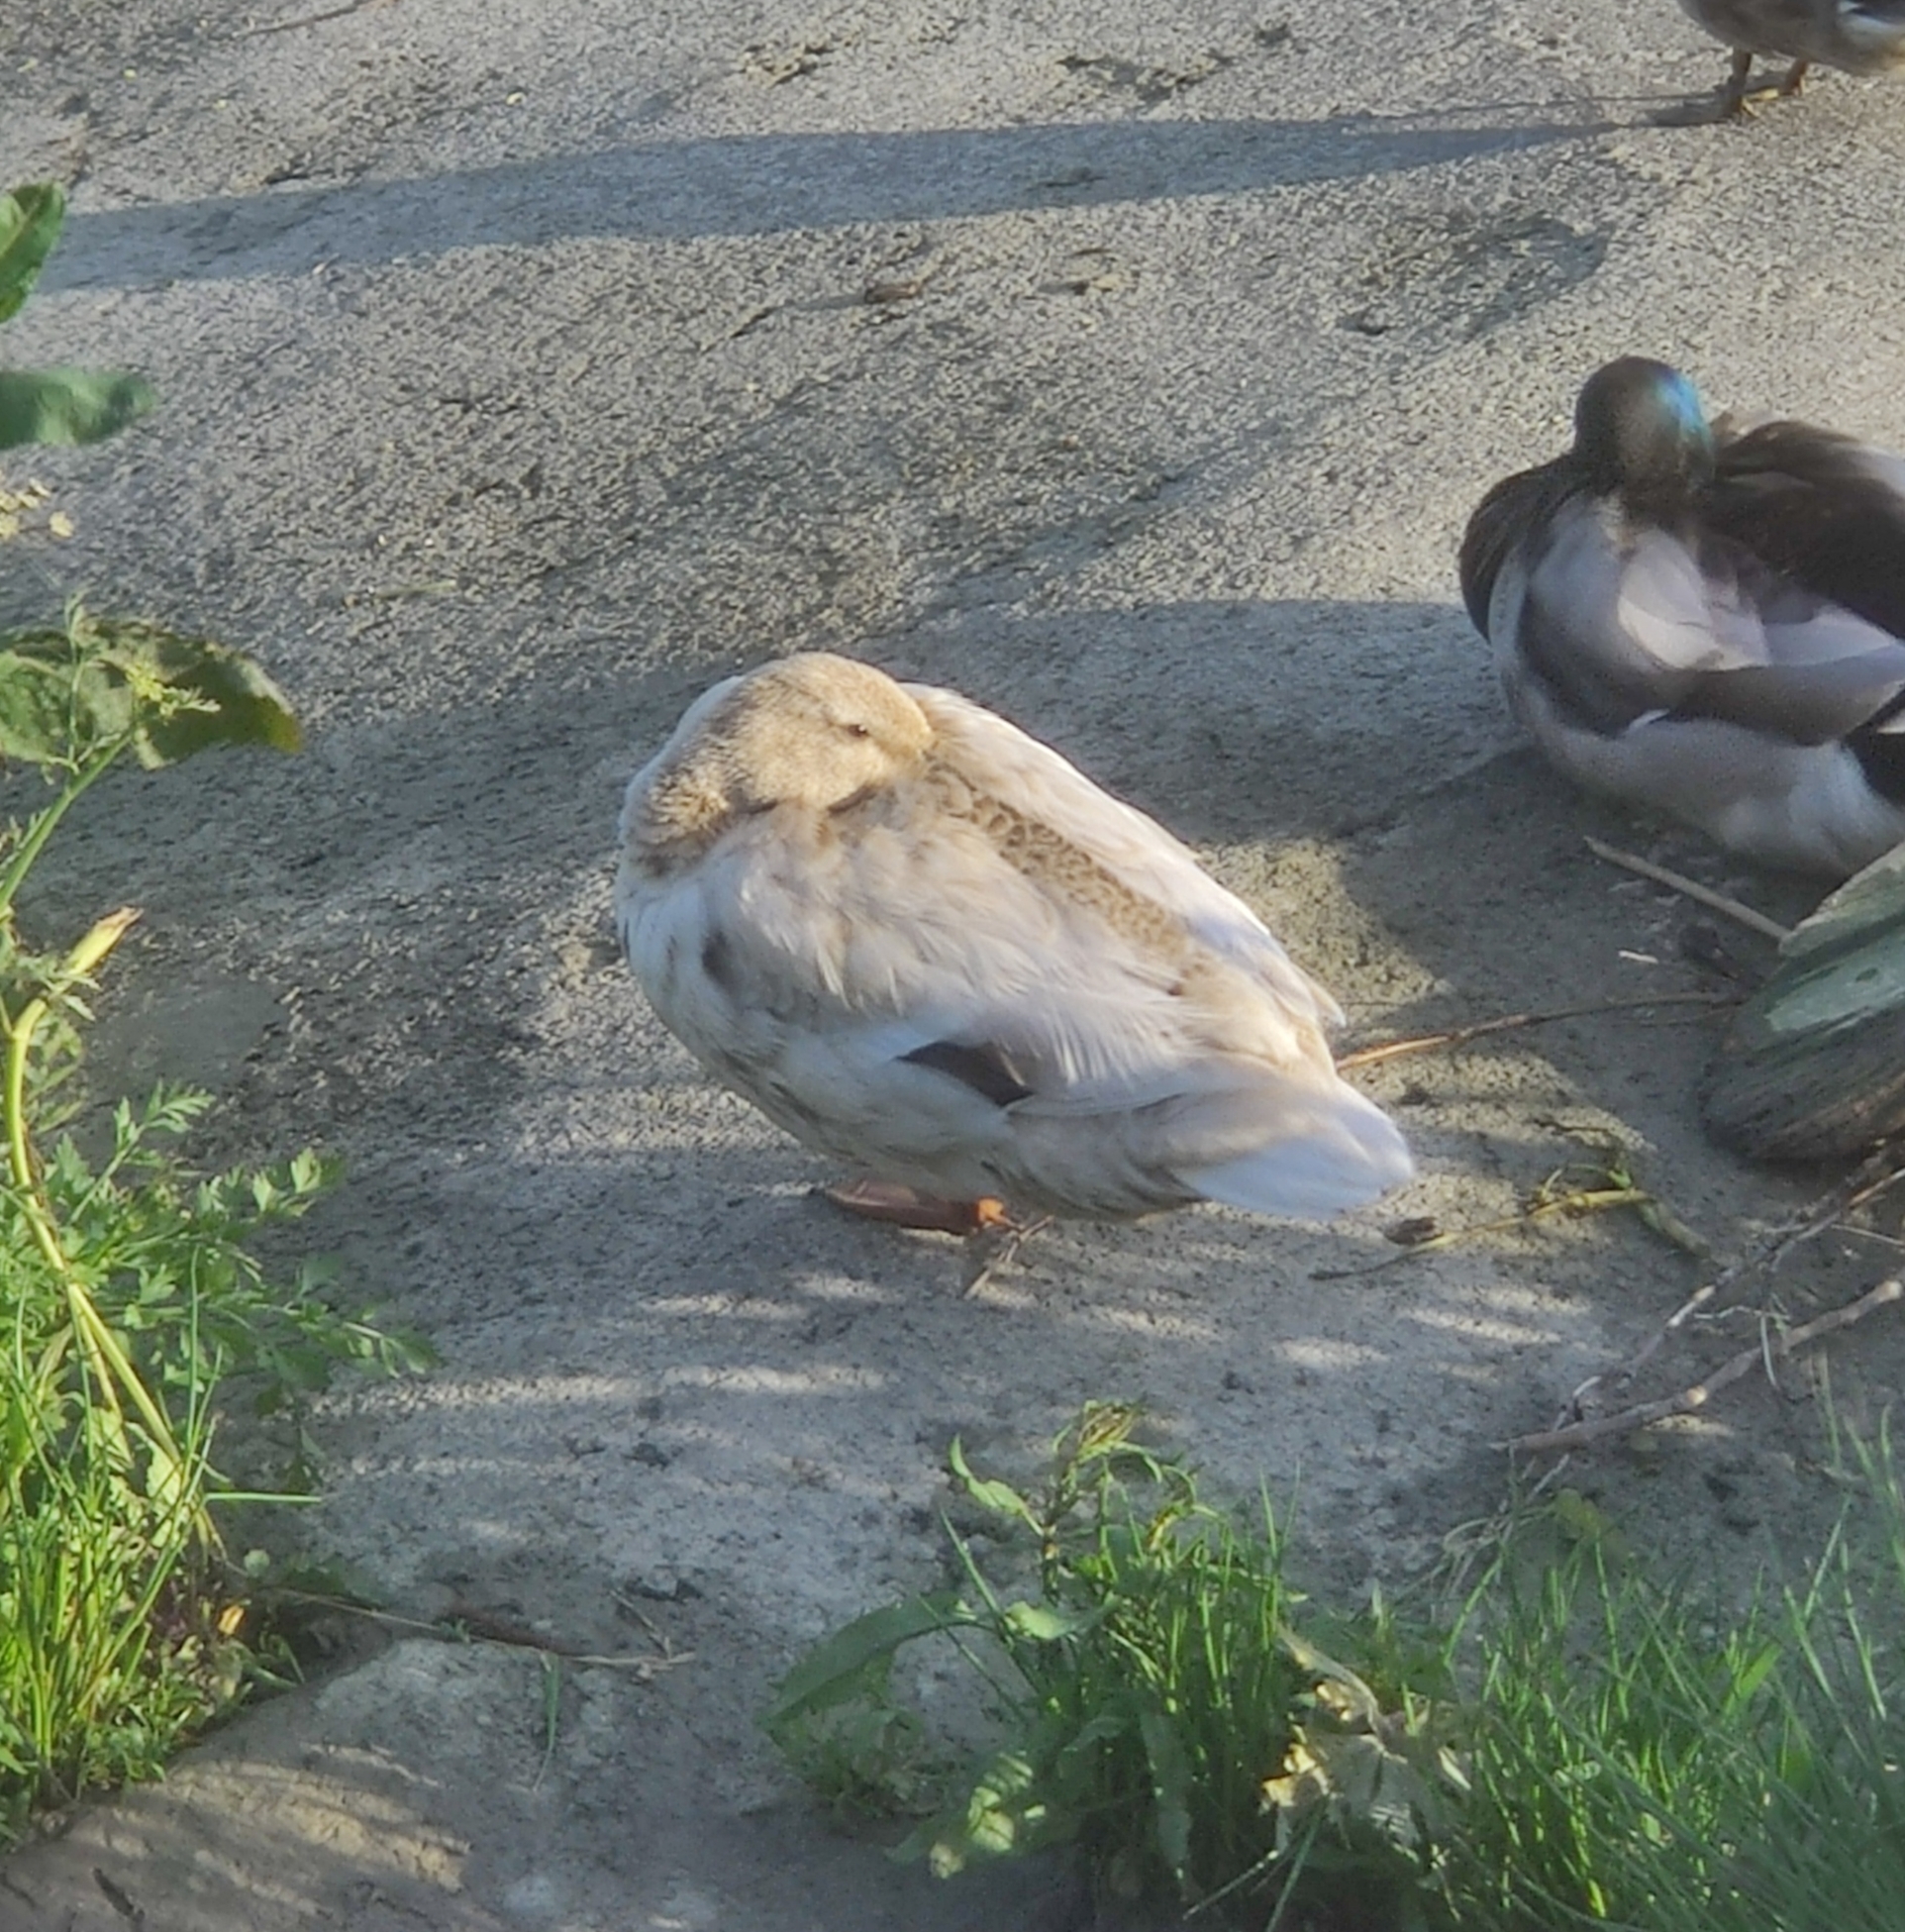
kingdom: Animalia
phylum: Chordata
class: Aves
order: Anseriformes
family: Anatidae
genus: Anas
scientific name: Anas platyrhynchos
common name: Mallard
